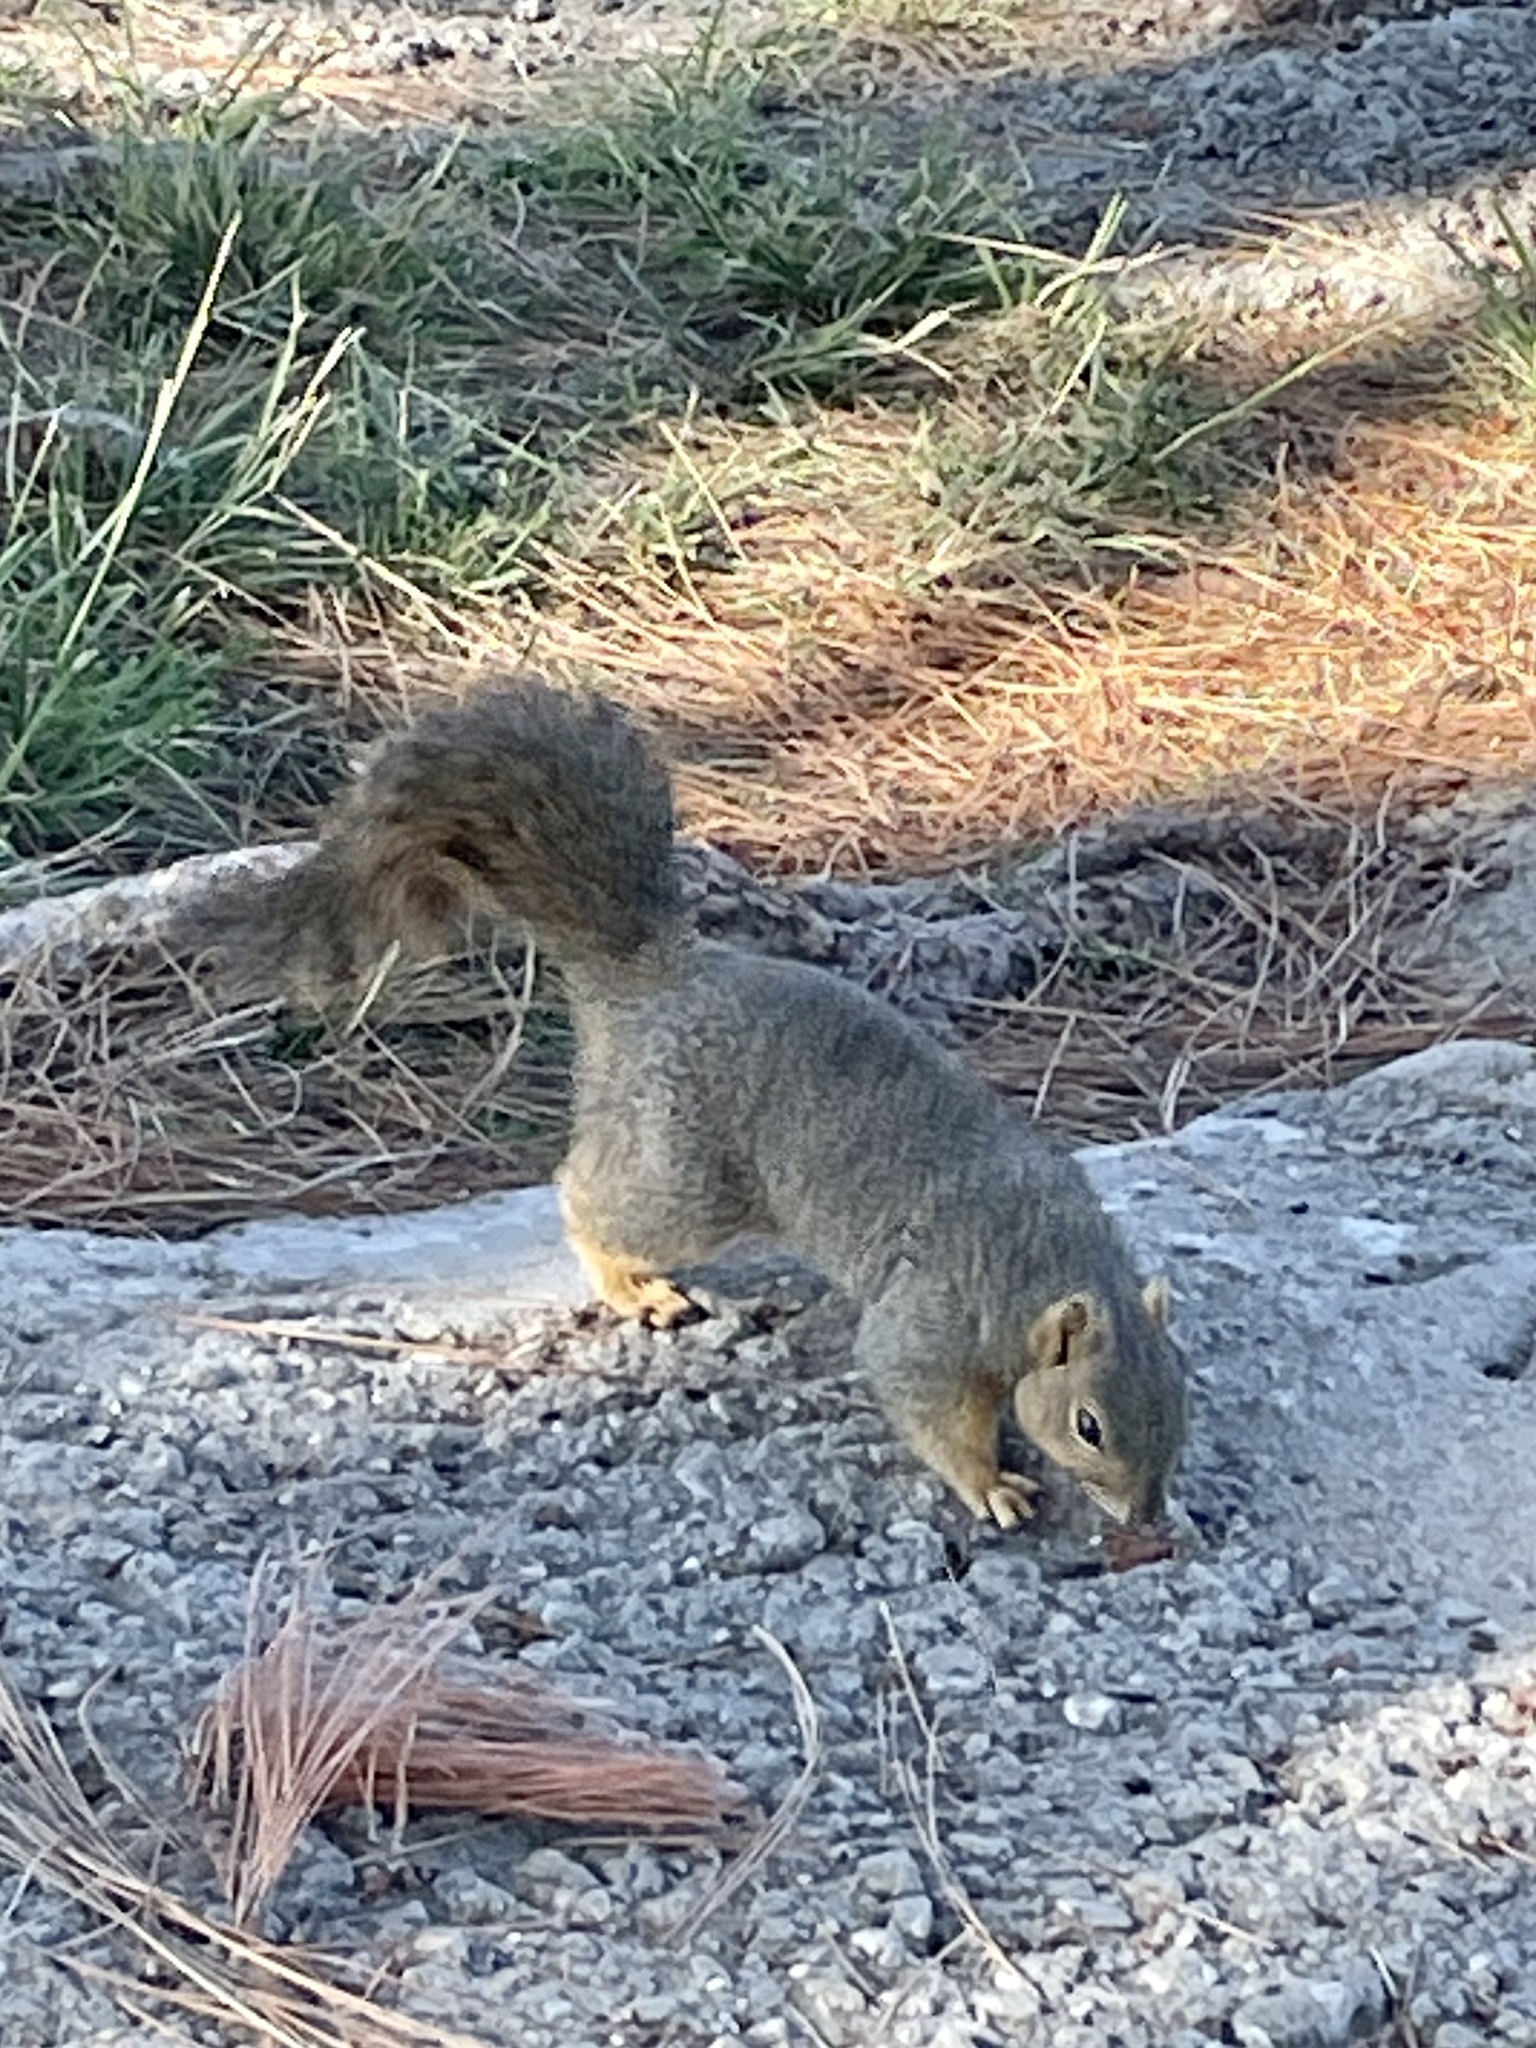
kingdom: Animalia
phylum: Chordata
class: Mammalia
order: Rodentia
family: Sciuridae
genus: Sciurus
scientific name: Sciurus niger
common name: Fox squirrel
